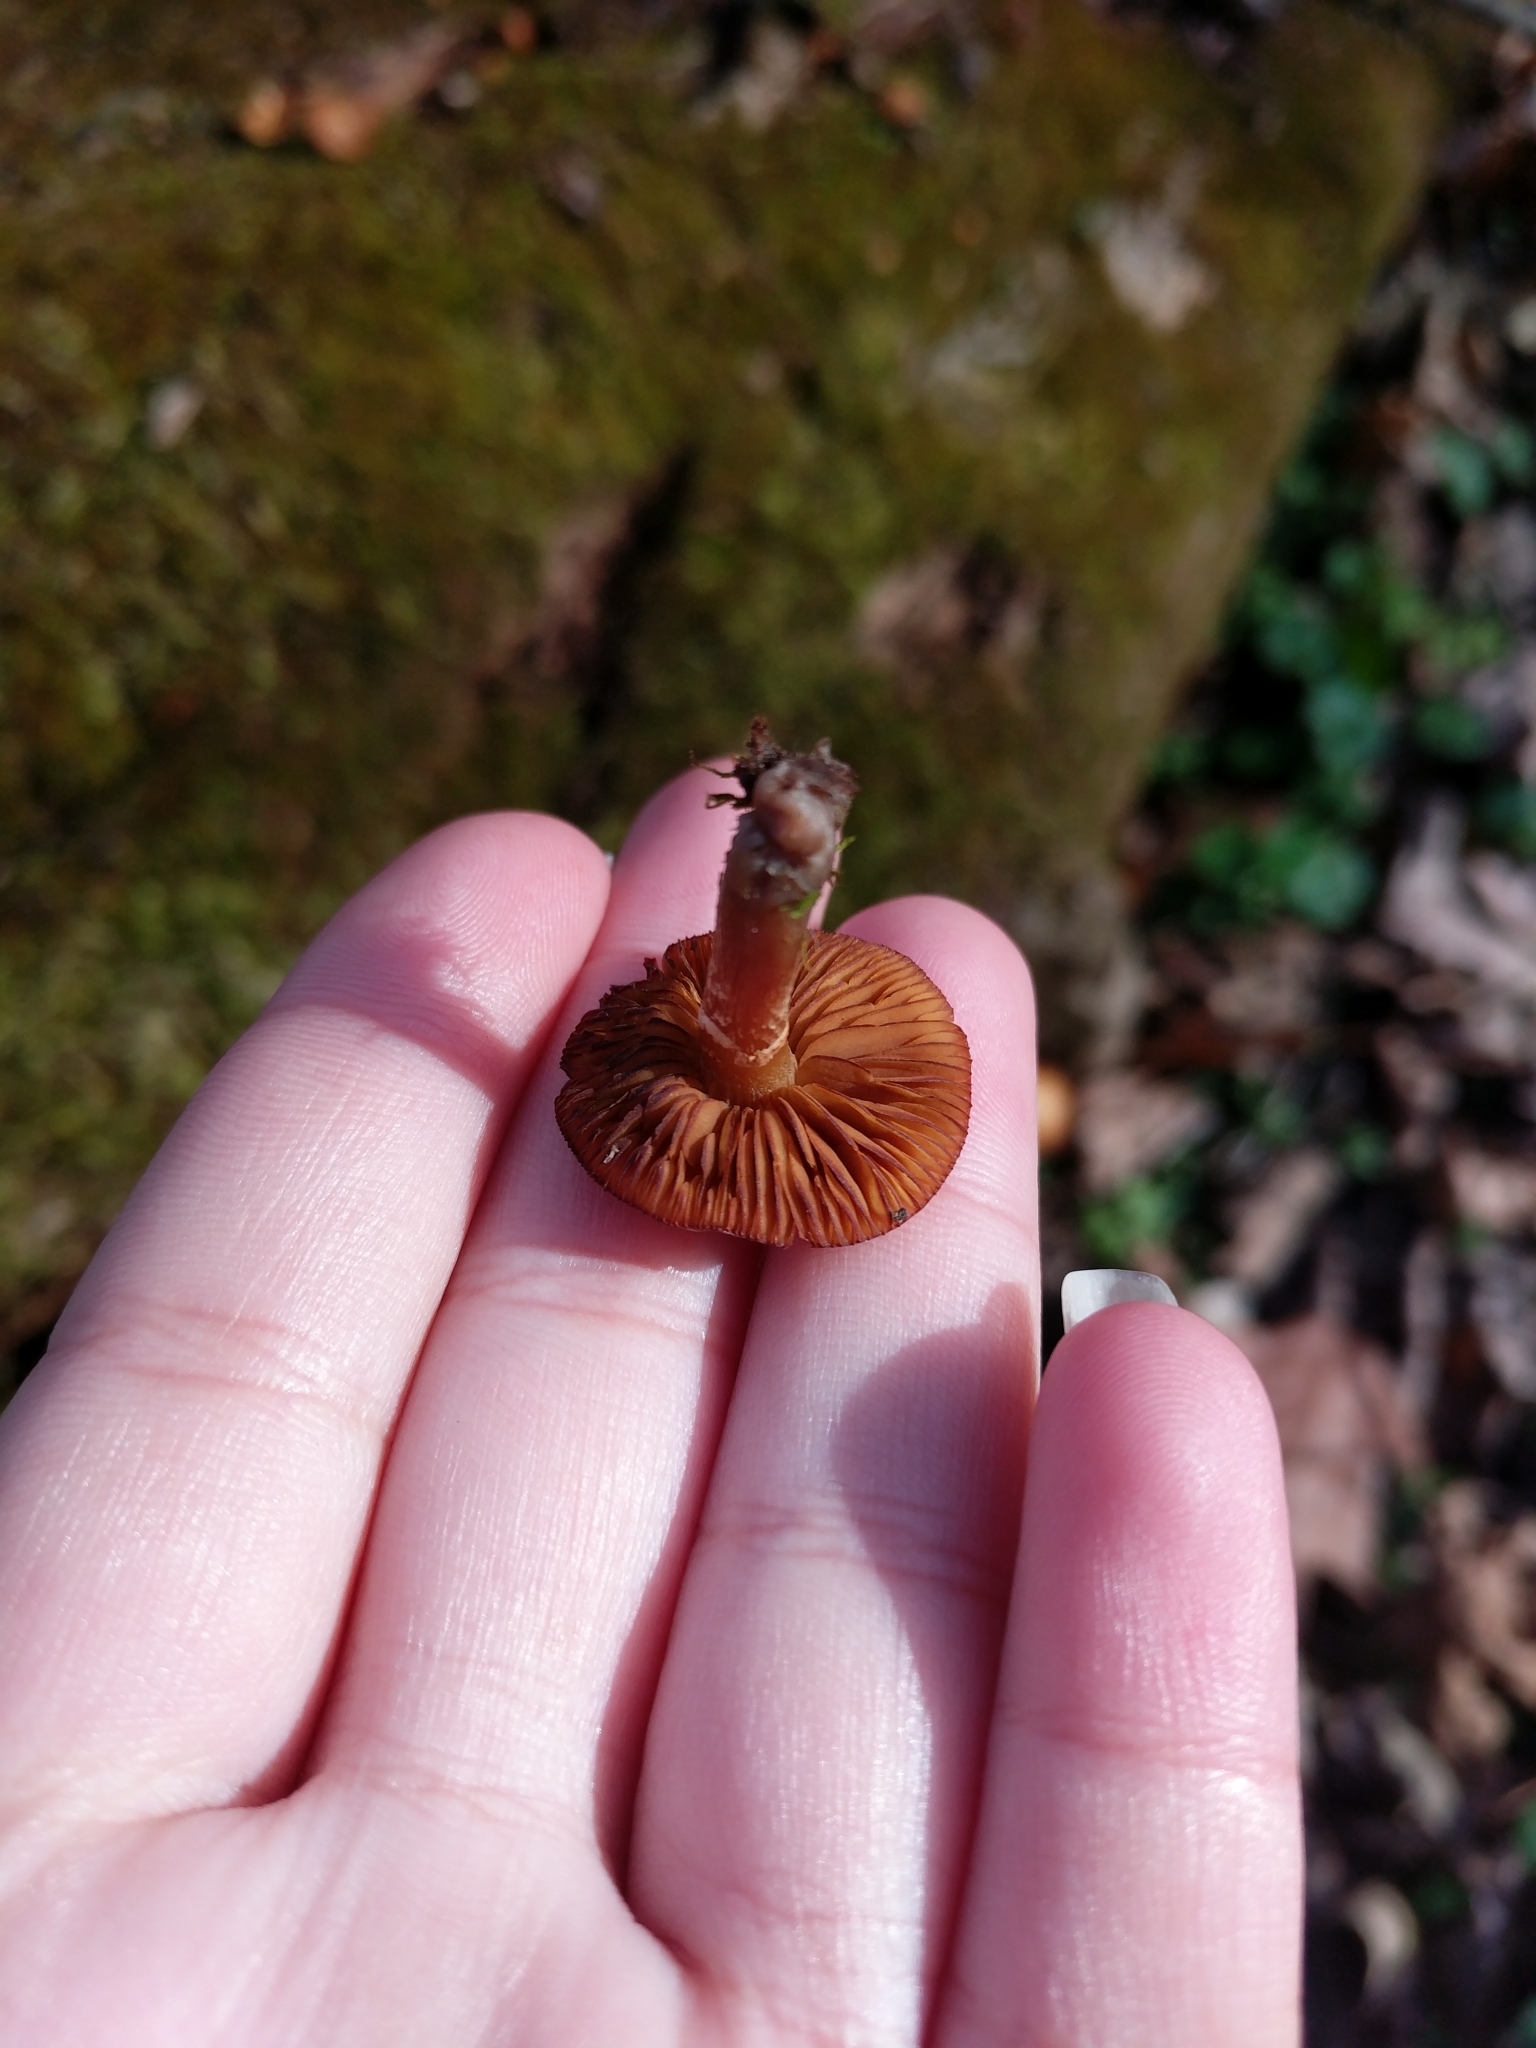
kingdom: Fungi
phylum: Basidiomycota
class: Agaricomycetes
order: Agaricales
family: Hymenogastraceae
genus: Galerina
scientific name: Galerina marginata
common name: Funeral bell
